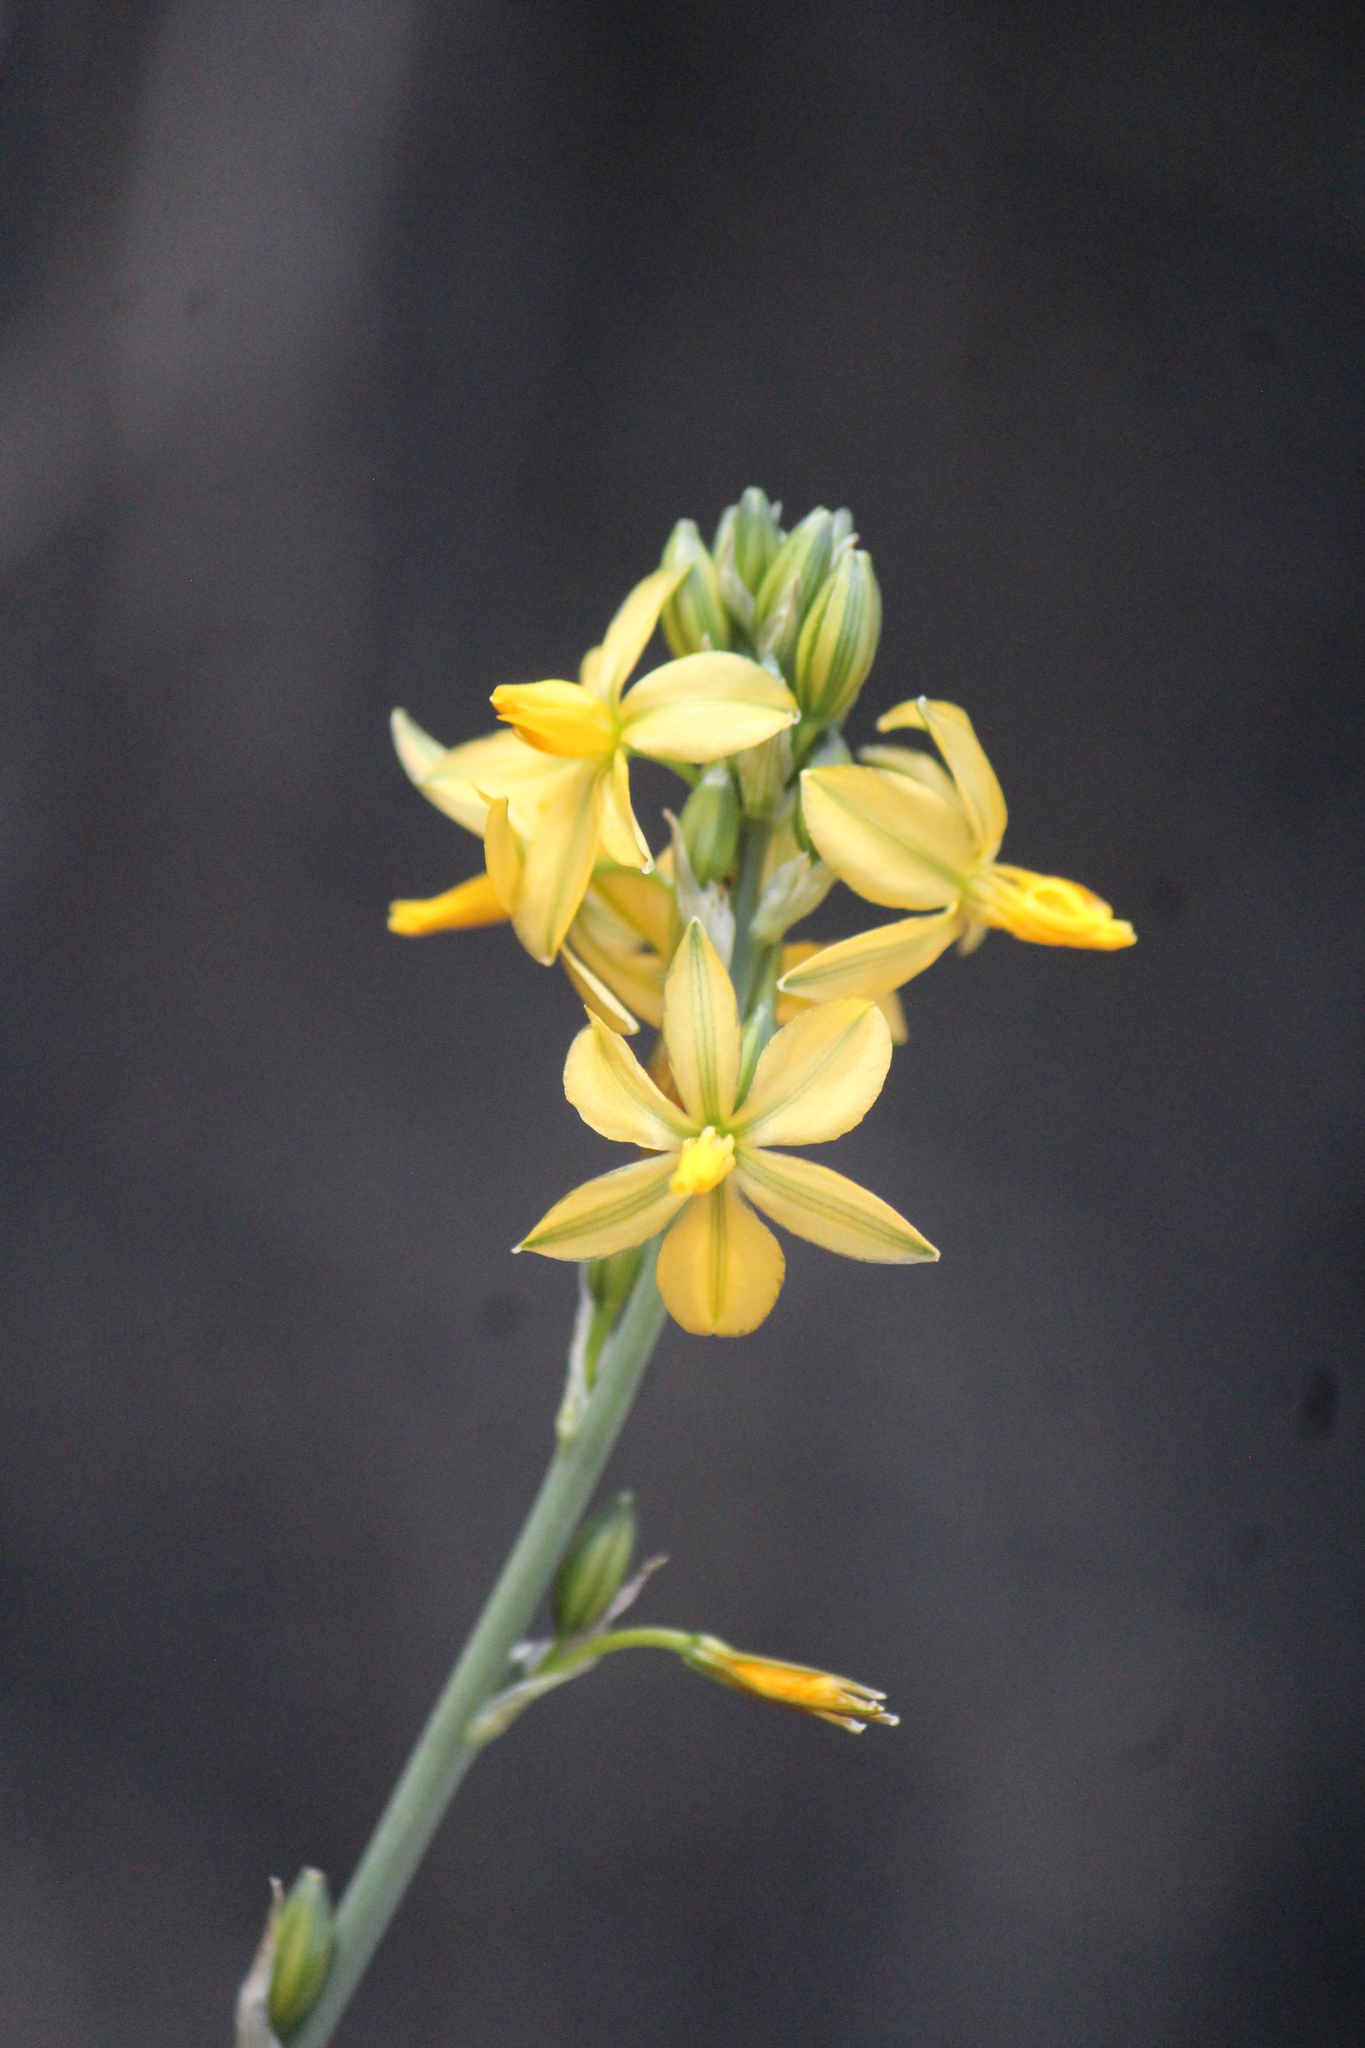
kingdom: Plantae
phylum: Tracheophyta
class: Liliopsida
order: Asparagales
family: Asparagaceae
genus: Echeandia
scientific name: Echeandia falcata
